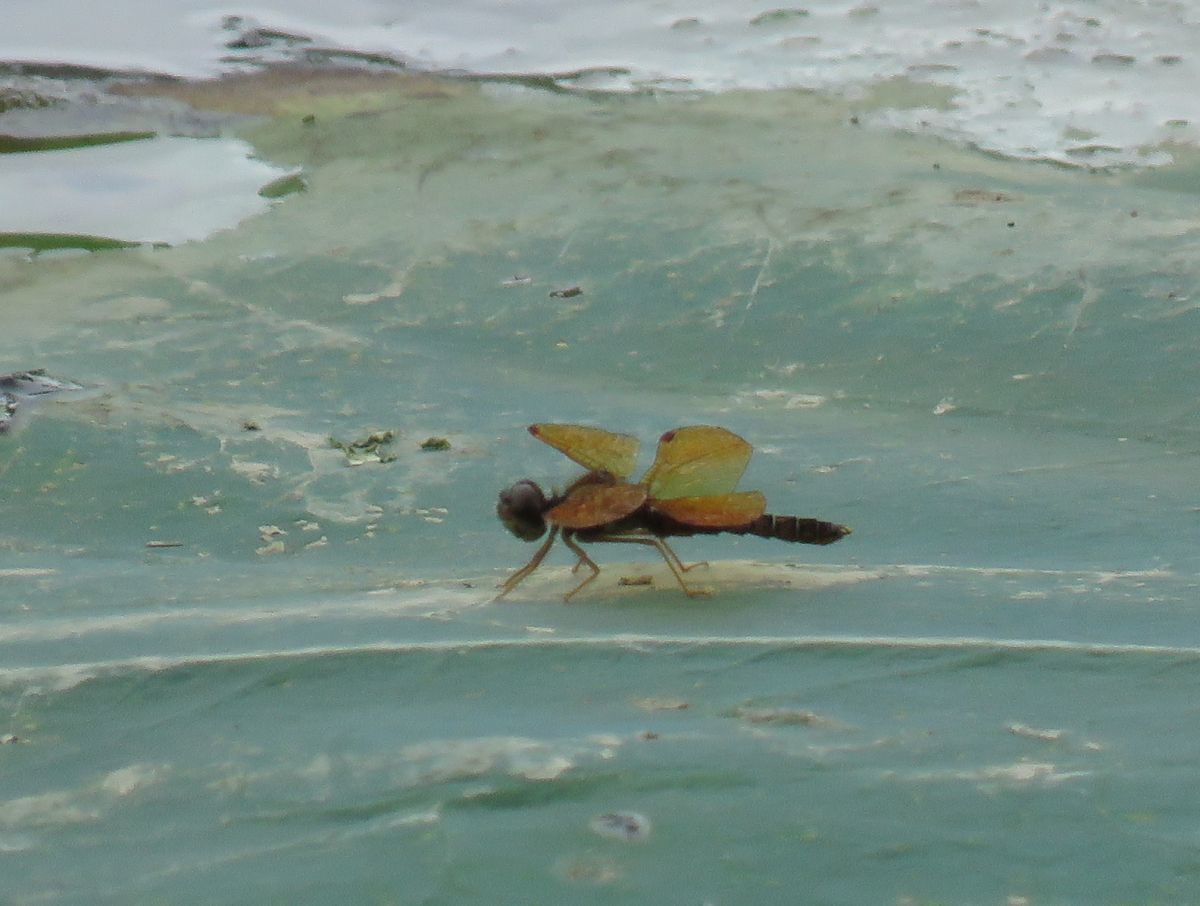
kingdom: Animalia
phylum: Arthropoda
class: Insecta
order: Odonata
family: Libellulidae
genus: Perithemis
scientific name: Perithemis tenera
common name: Eastern amberwing
